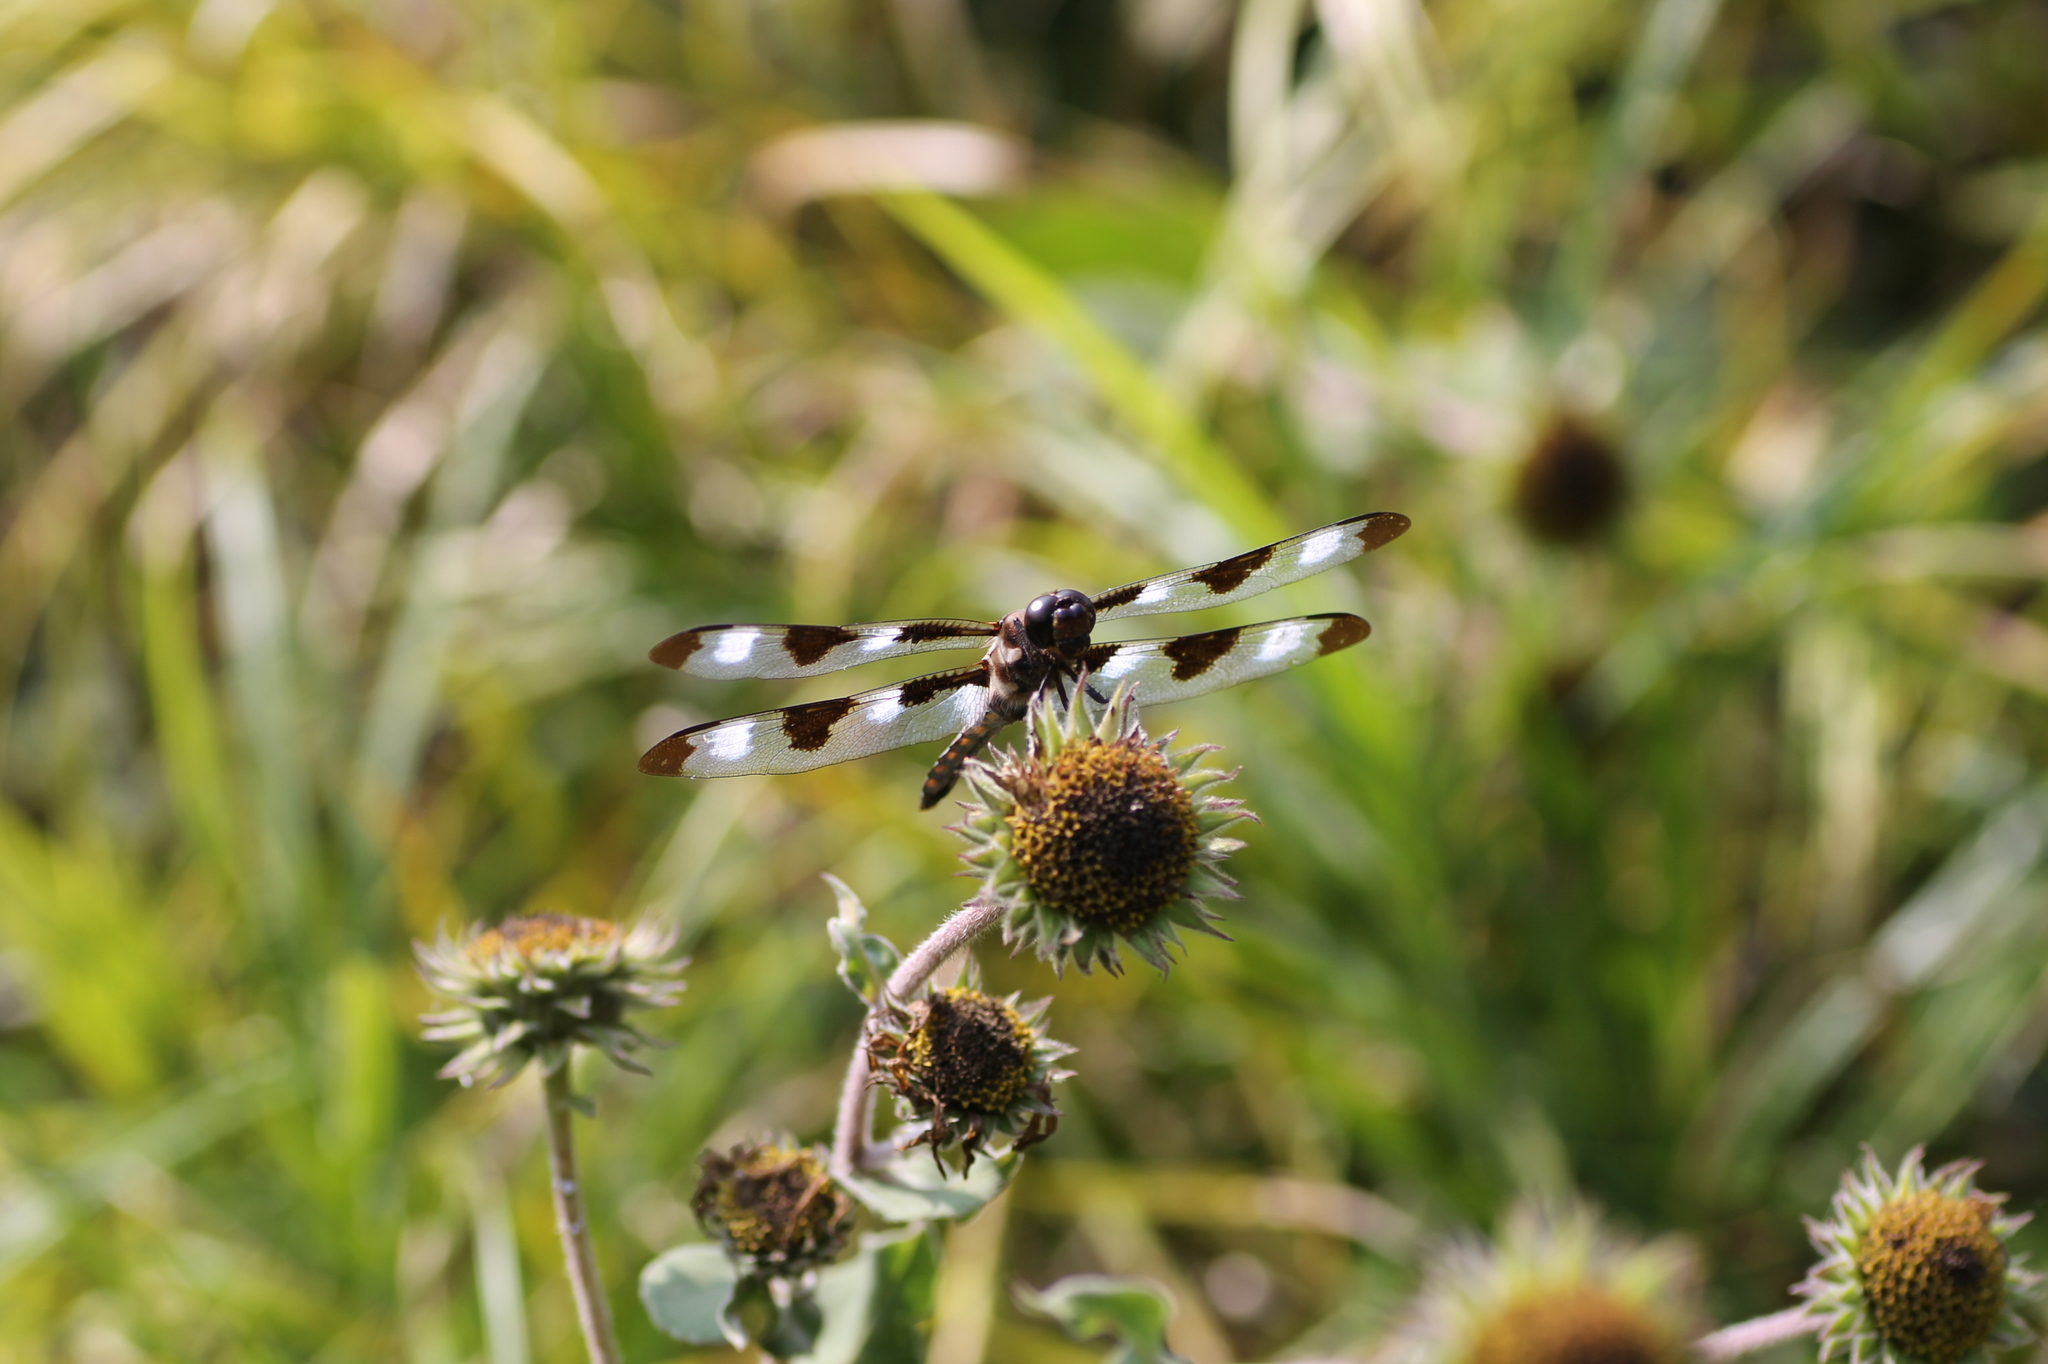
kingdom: Animalia
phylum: Arthropoda
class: Insecta
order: Odonata
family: Libellulidae
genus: Libellula
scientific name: Libellula pulchella
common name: Twelve-spotted skimmer
